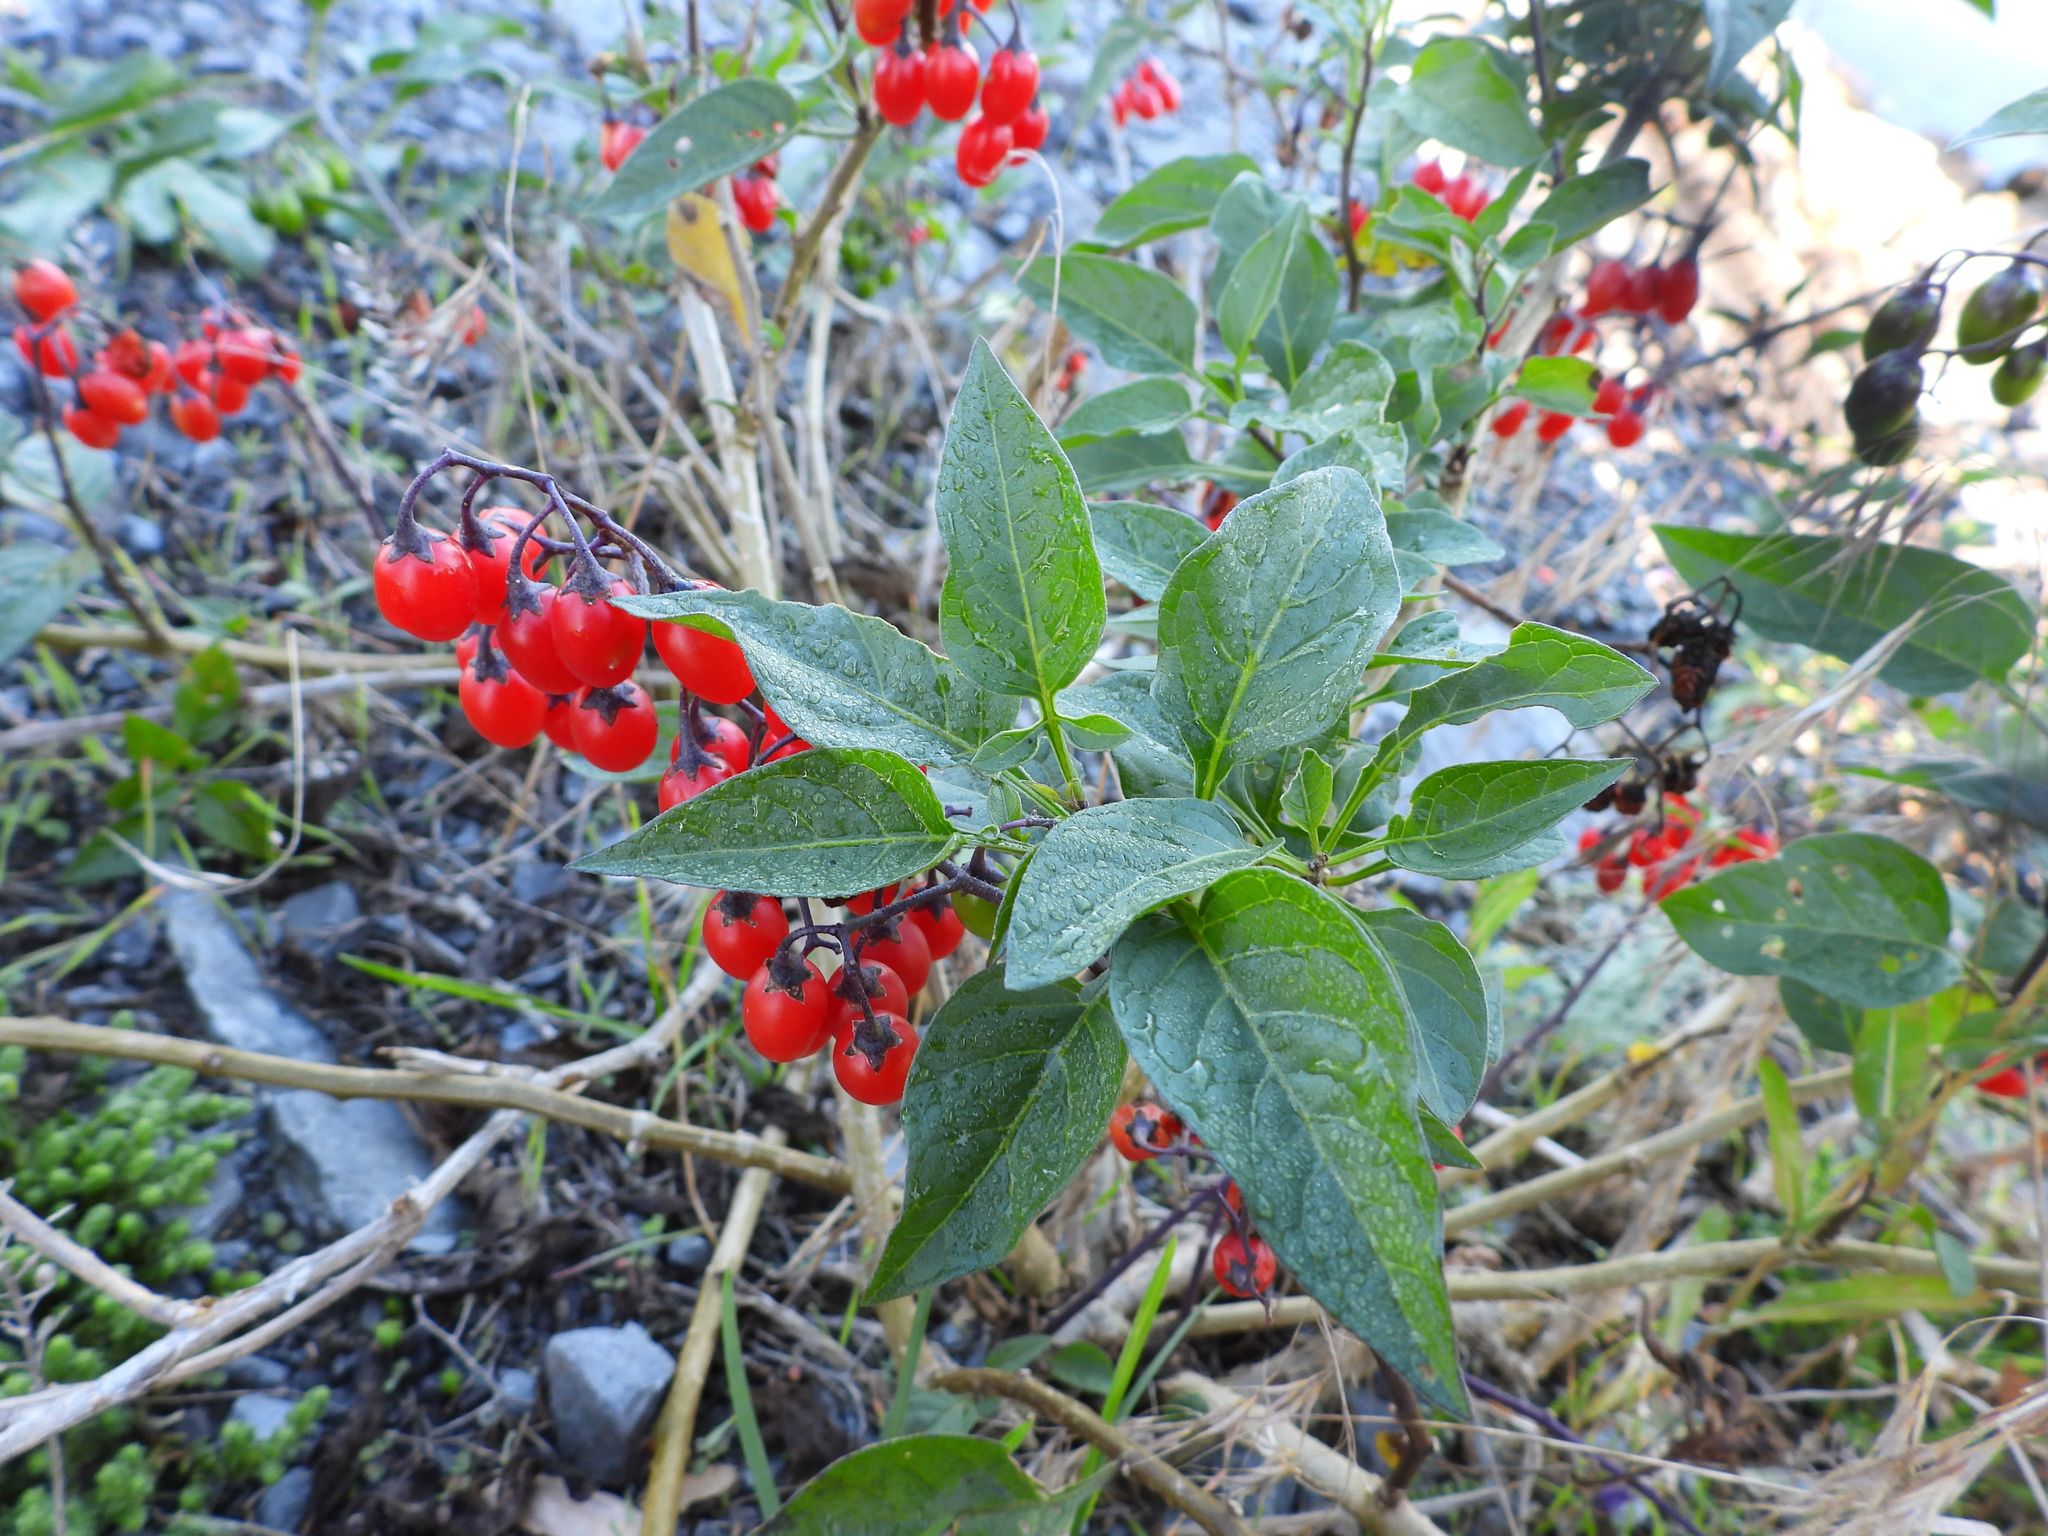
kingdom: Plantae
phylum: Tracheophyta
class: Magnoliopsida
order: Solanales
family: Solanaceae
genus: Solanum
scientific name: Solanum dulcamara
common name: Climbing nightshade
